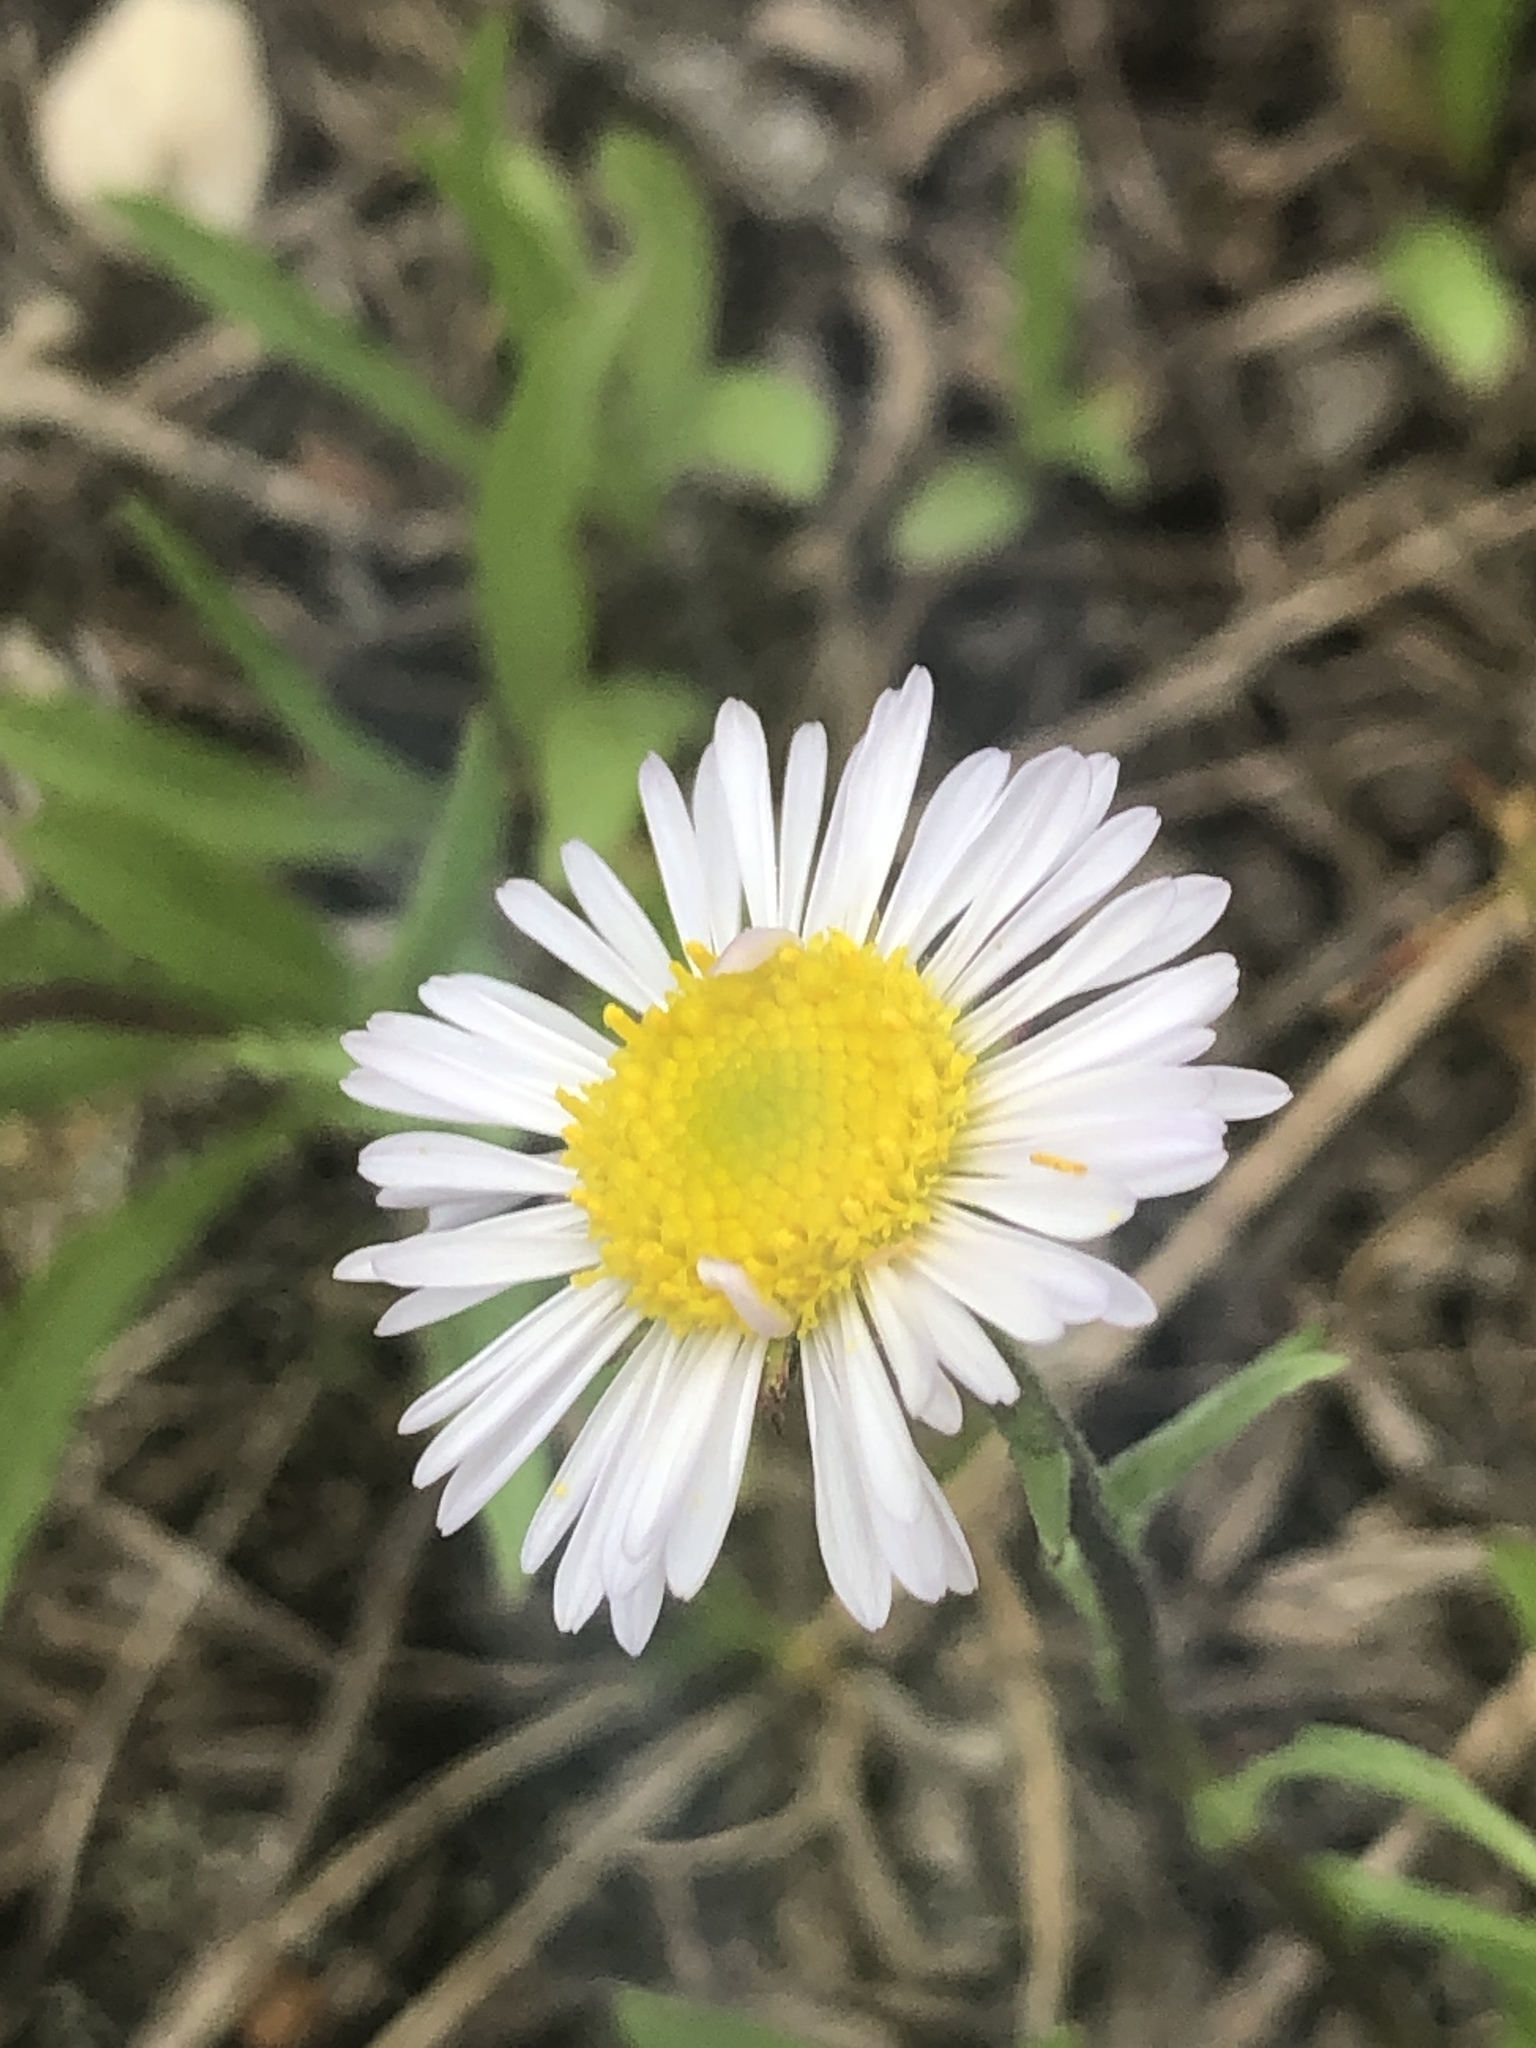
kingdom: Plantae
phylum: Tracheophyta
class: Magnoliopsida
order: Asterales
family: Asteraceae
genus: Erigeron
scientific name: Erigeron strigosus
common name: Common eastern fleabane
